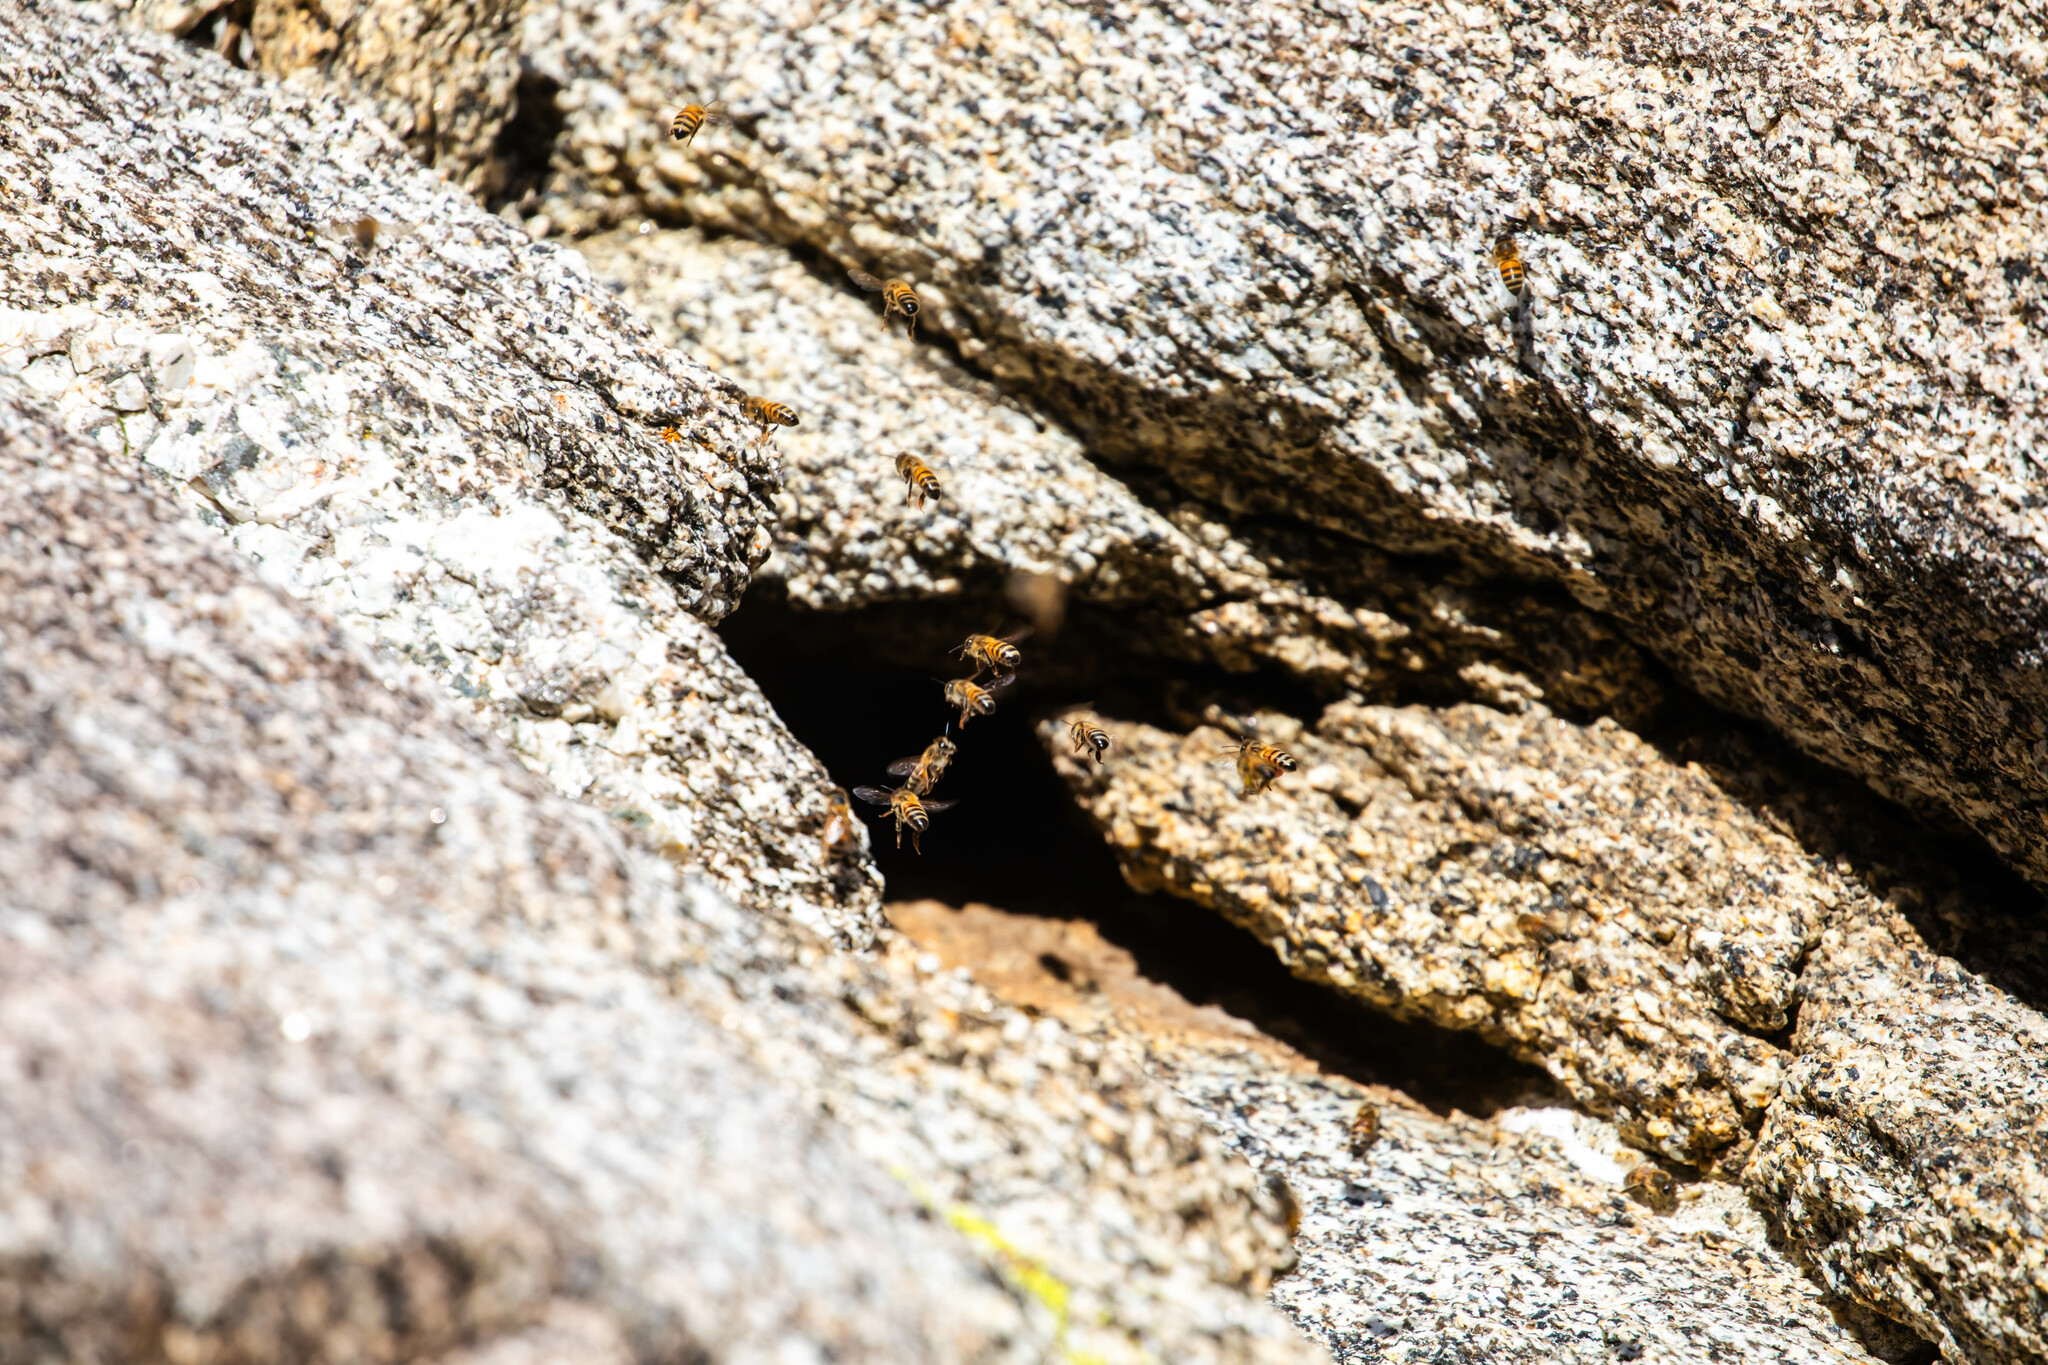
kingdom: Animalia
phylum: Arthropoda
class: Insecta
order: Hymenoptera
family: Apidae
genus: Apis
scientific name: Apis mellifera
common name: Honey bee
